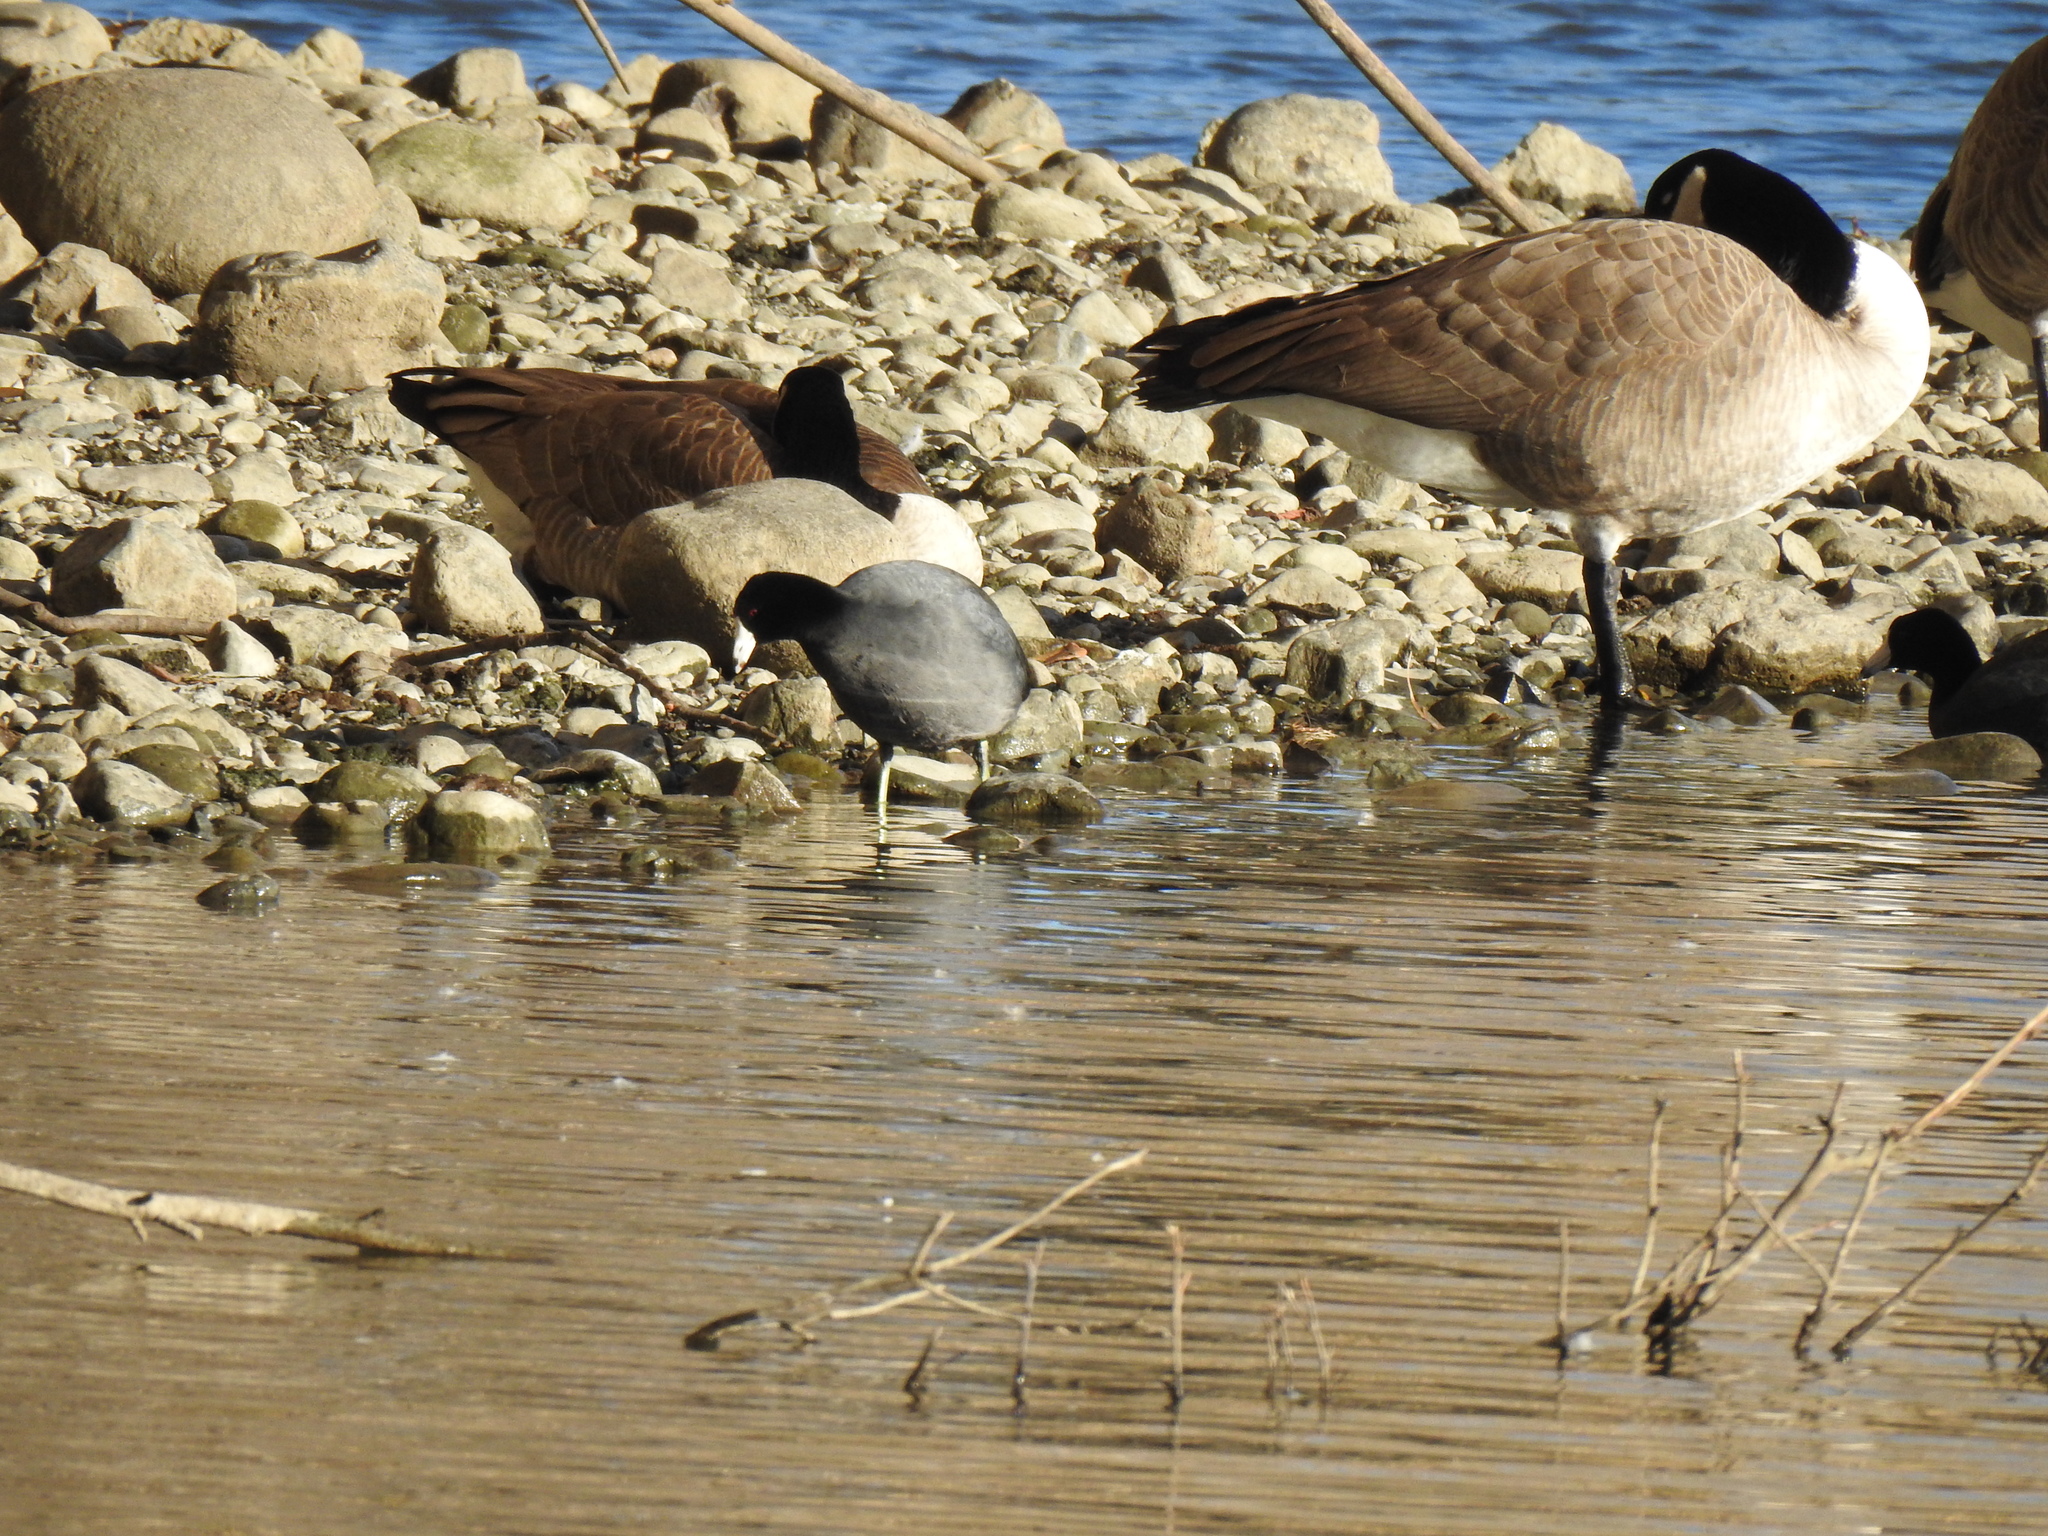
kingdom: Animalia
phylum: Chordata
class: Aves
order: Gruiformes
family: Rallidae
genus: Fulica
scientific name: Fulica americana
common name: American coot
